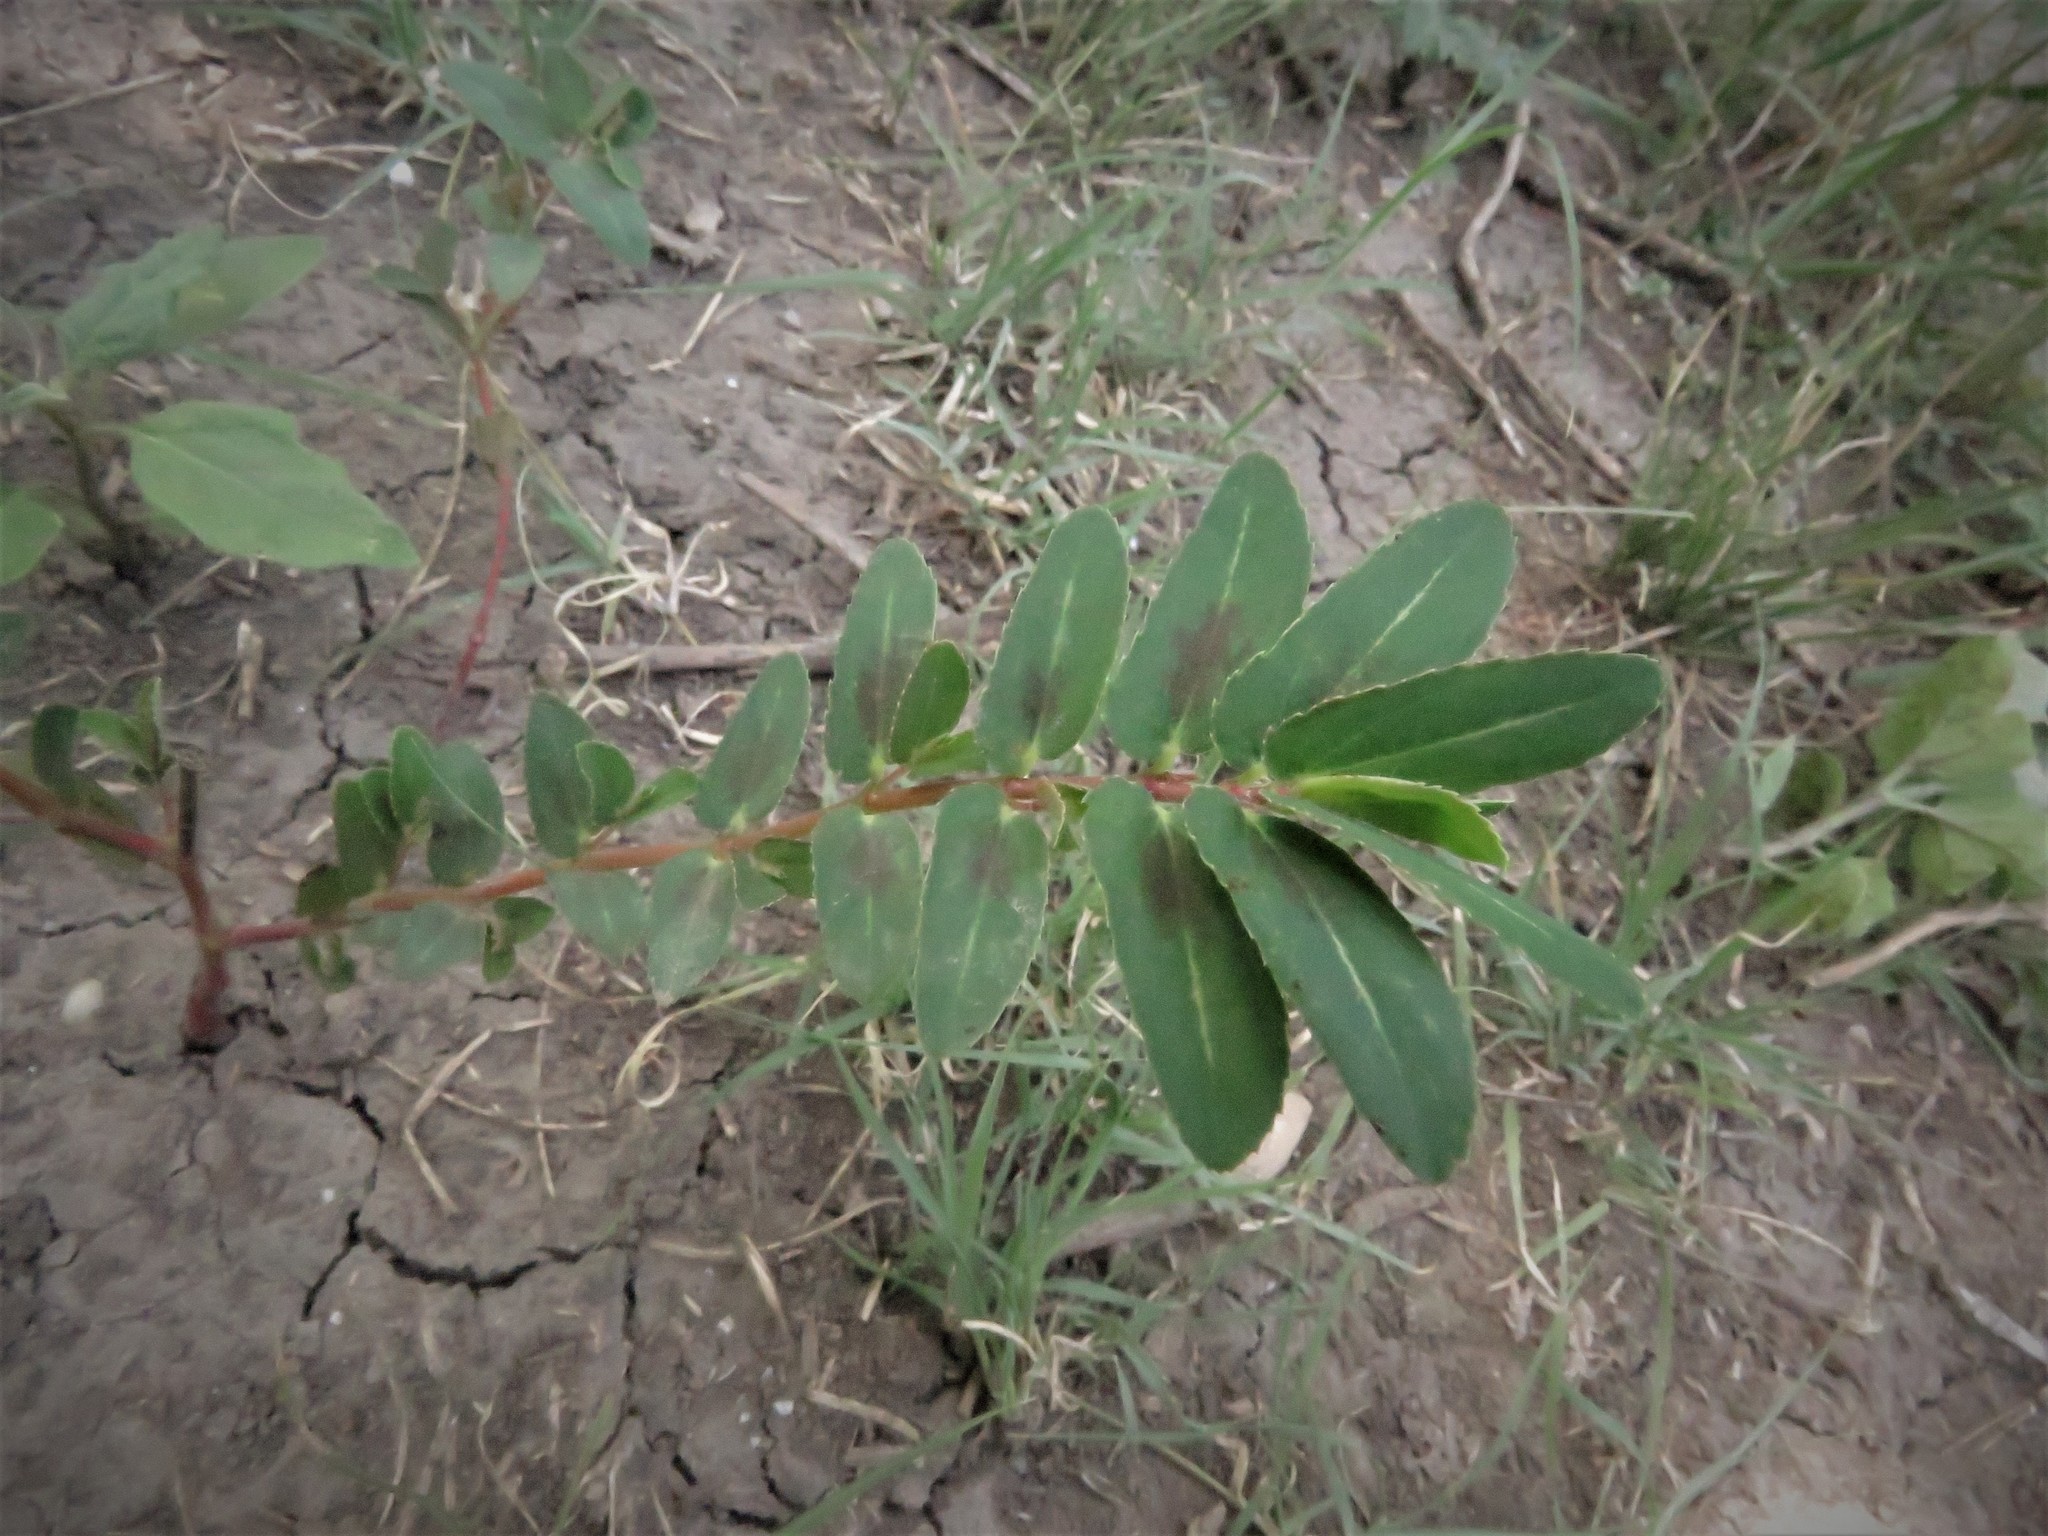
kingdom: Plantae
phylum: Tracheophyta
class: Magnoliopsida
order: Malpighiales
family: Euphorbiaceae
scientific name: Euphorbiaceae
